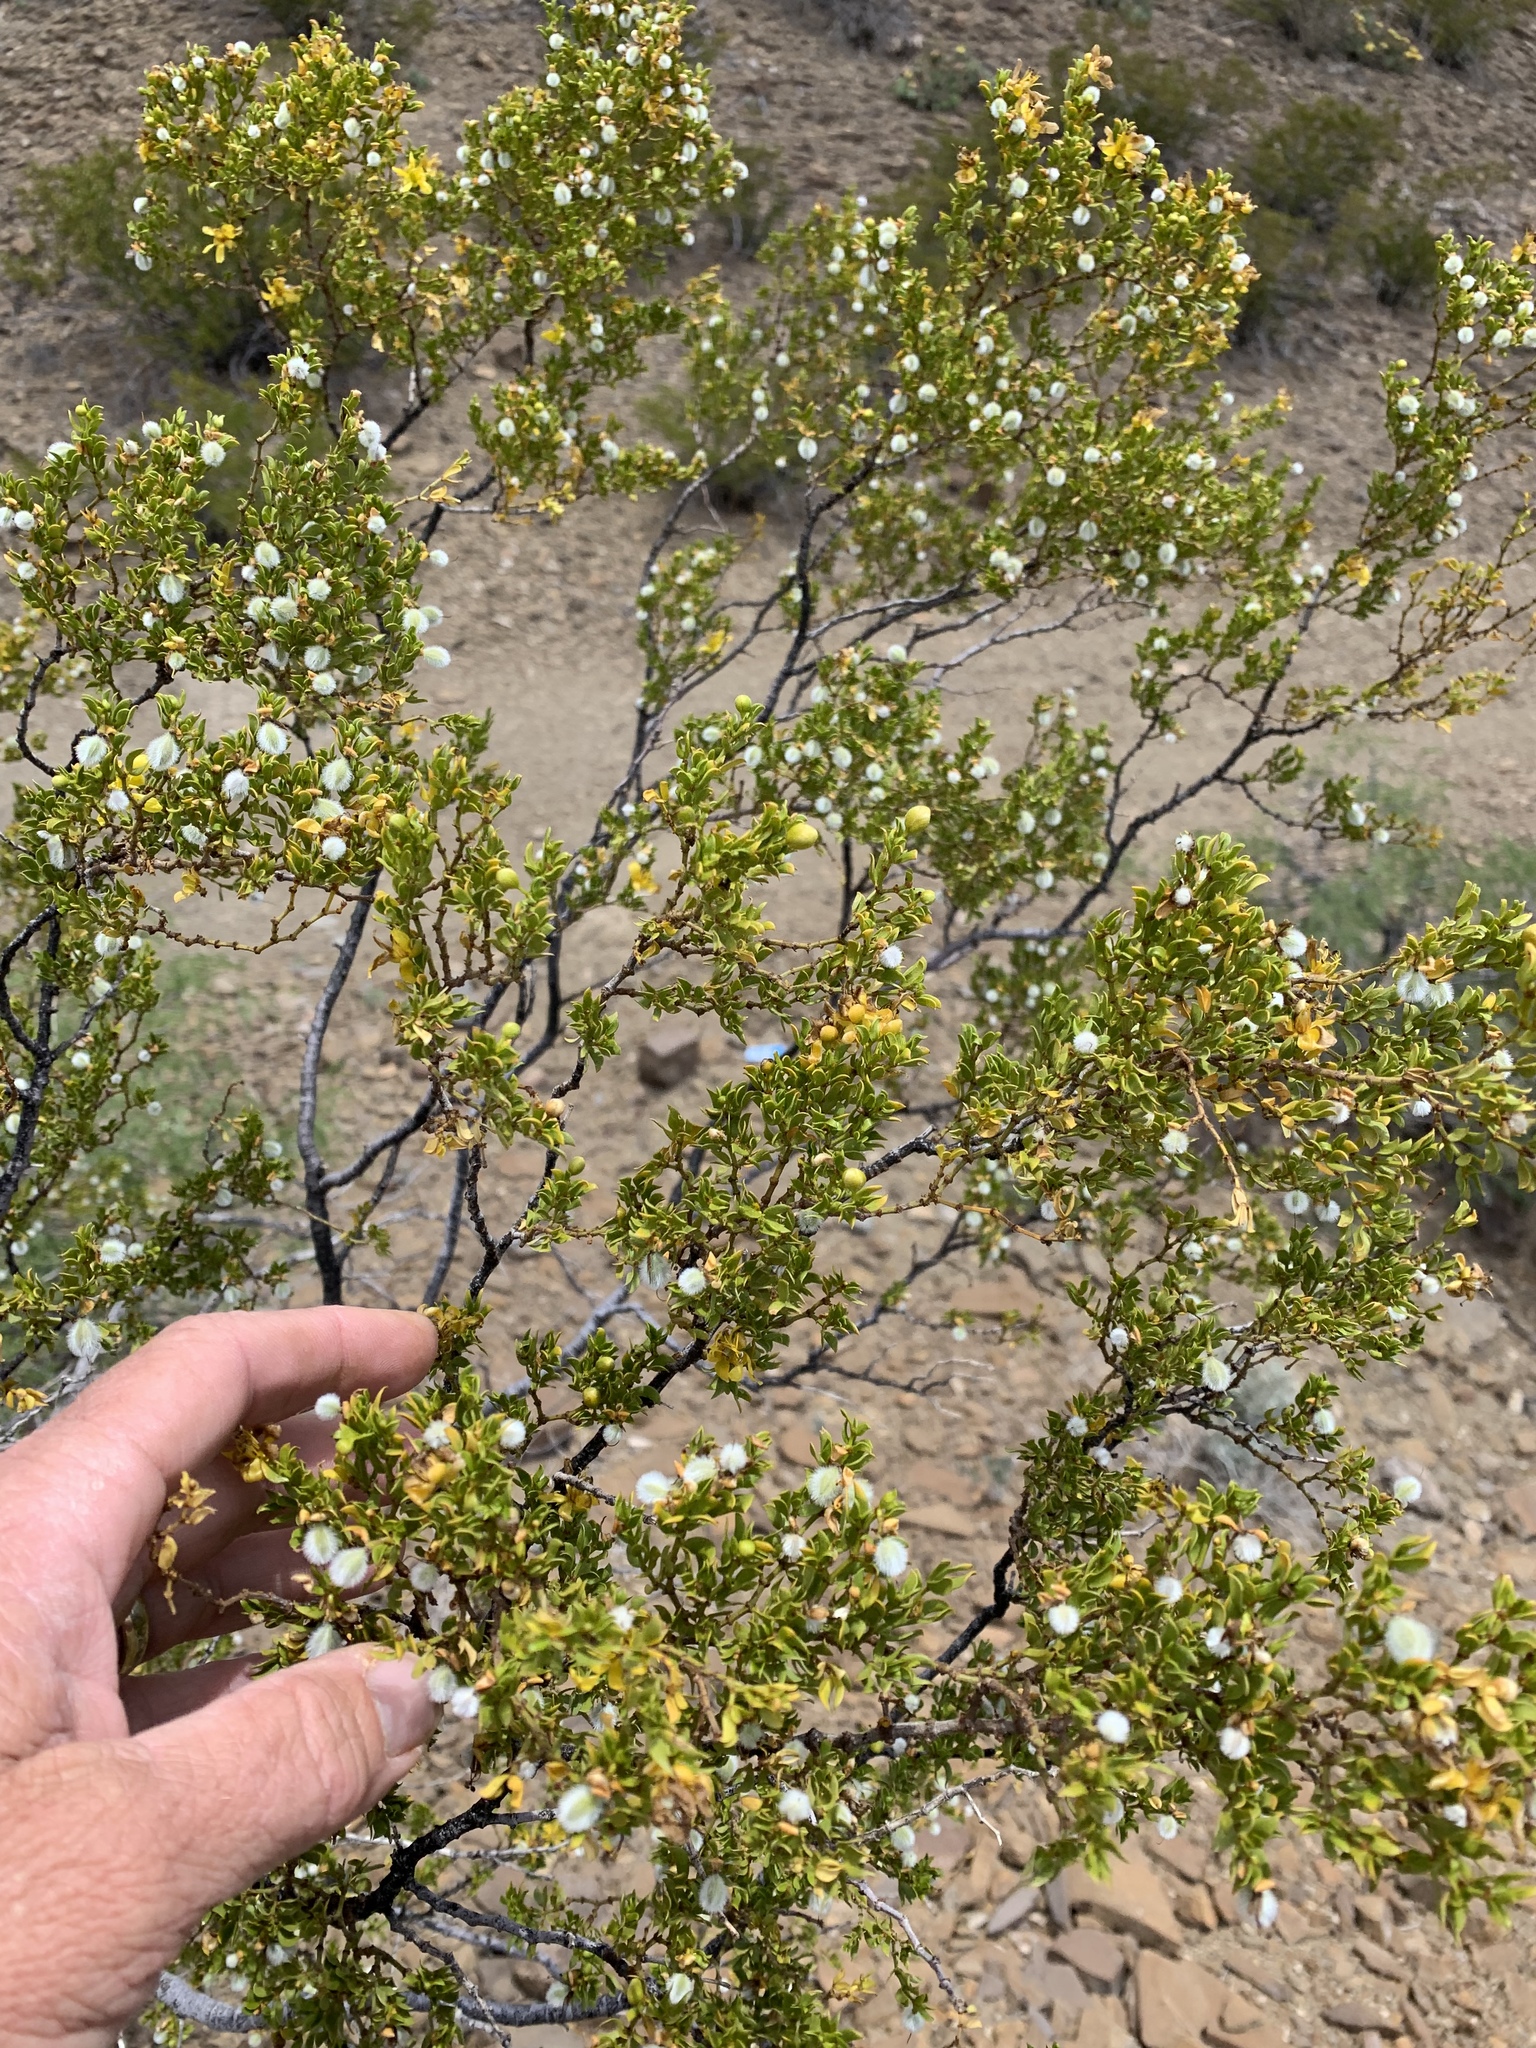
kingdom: Plantae
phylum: Tracheophyta
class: Magnoliopsida
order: Zygophyllales
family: Zygophyllaceae
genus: Larrea
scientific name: Larrea tridentata
